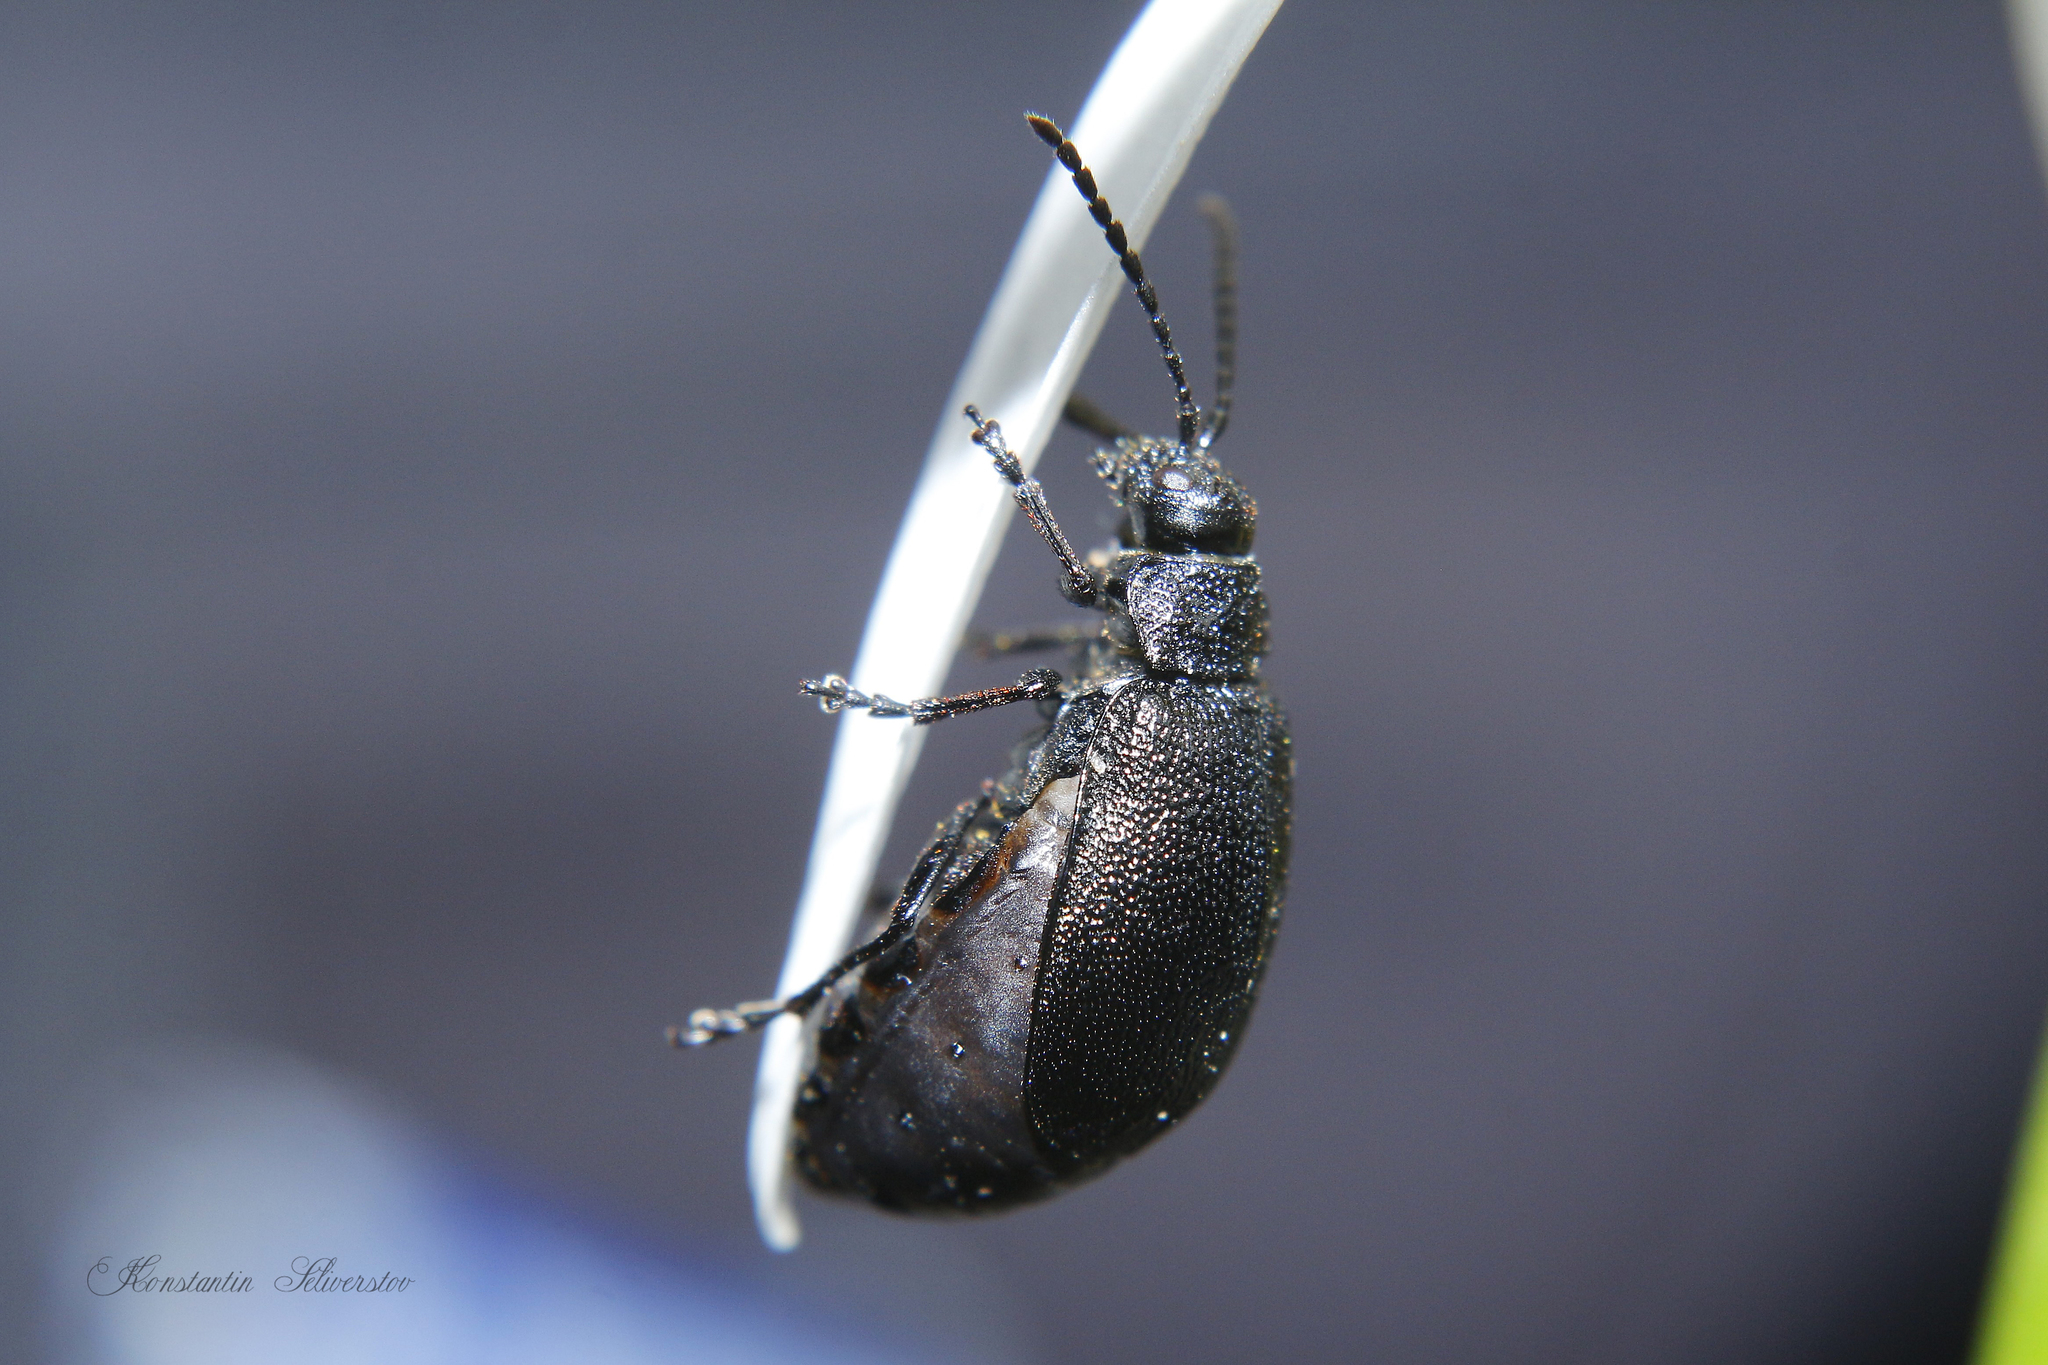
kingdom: Animalia
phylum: Arthropoda
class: Insecta
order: Coleoptera
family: Chrysomelidae
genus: Galeruca
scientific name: Galeruca tanaceti
